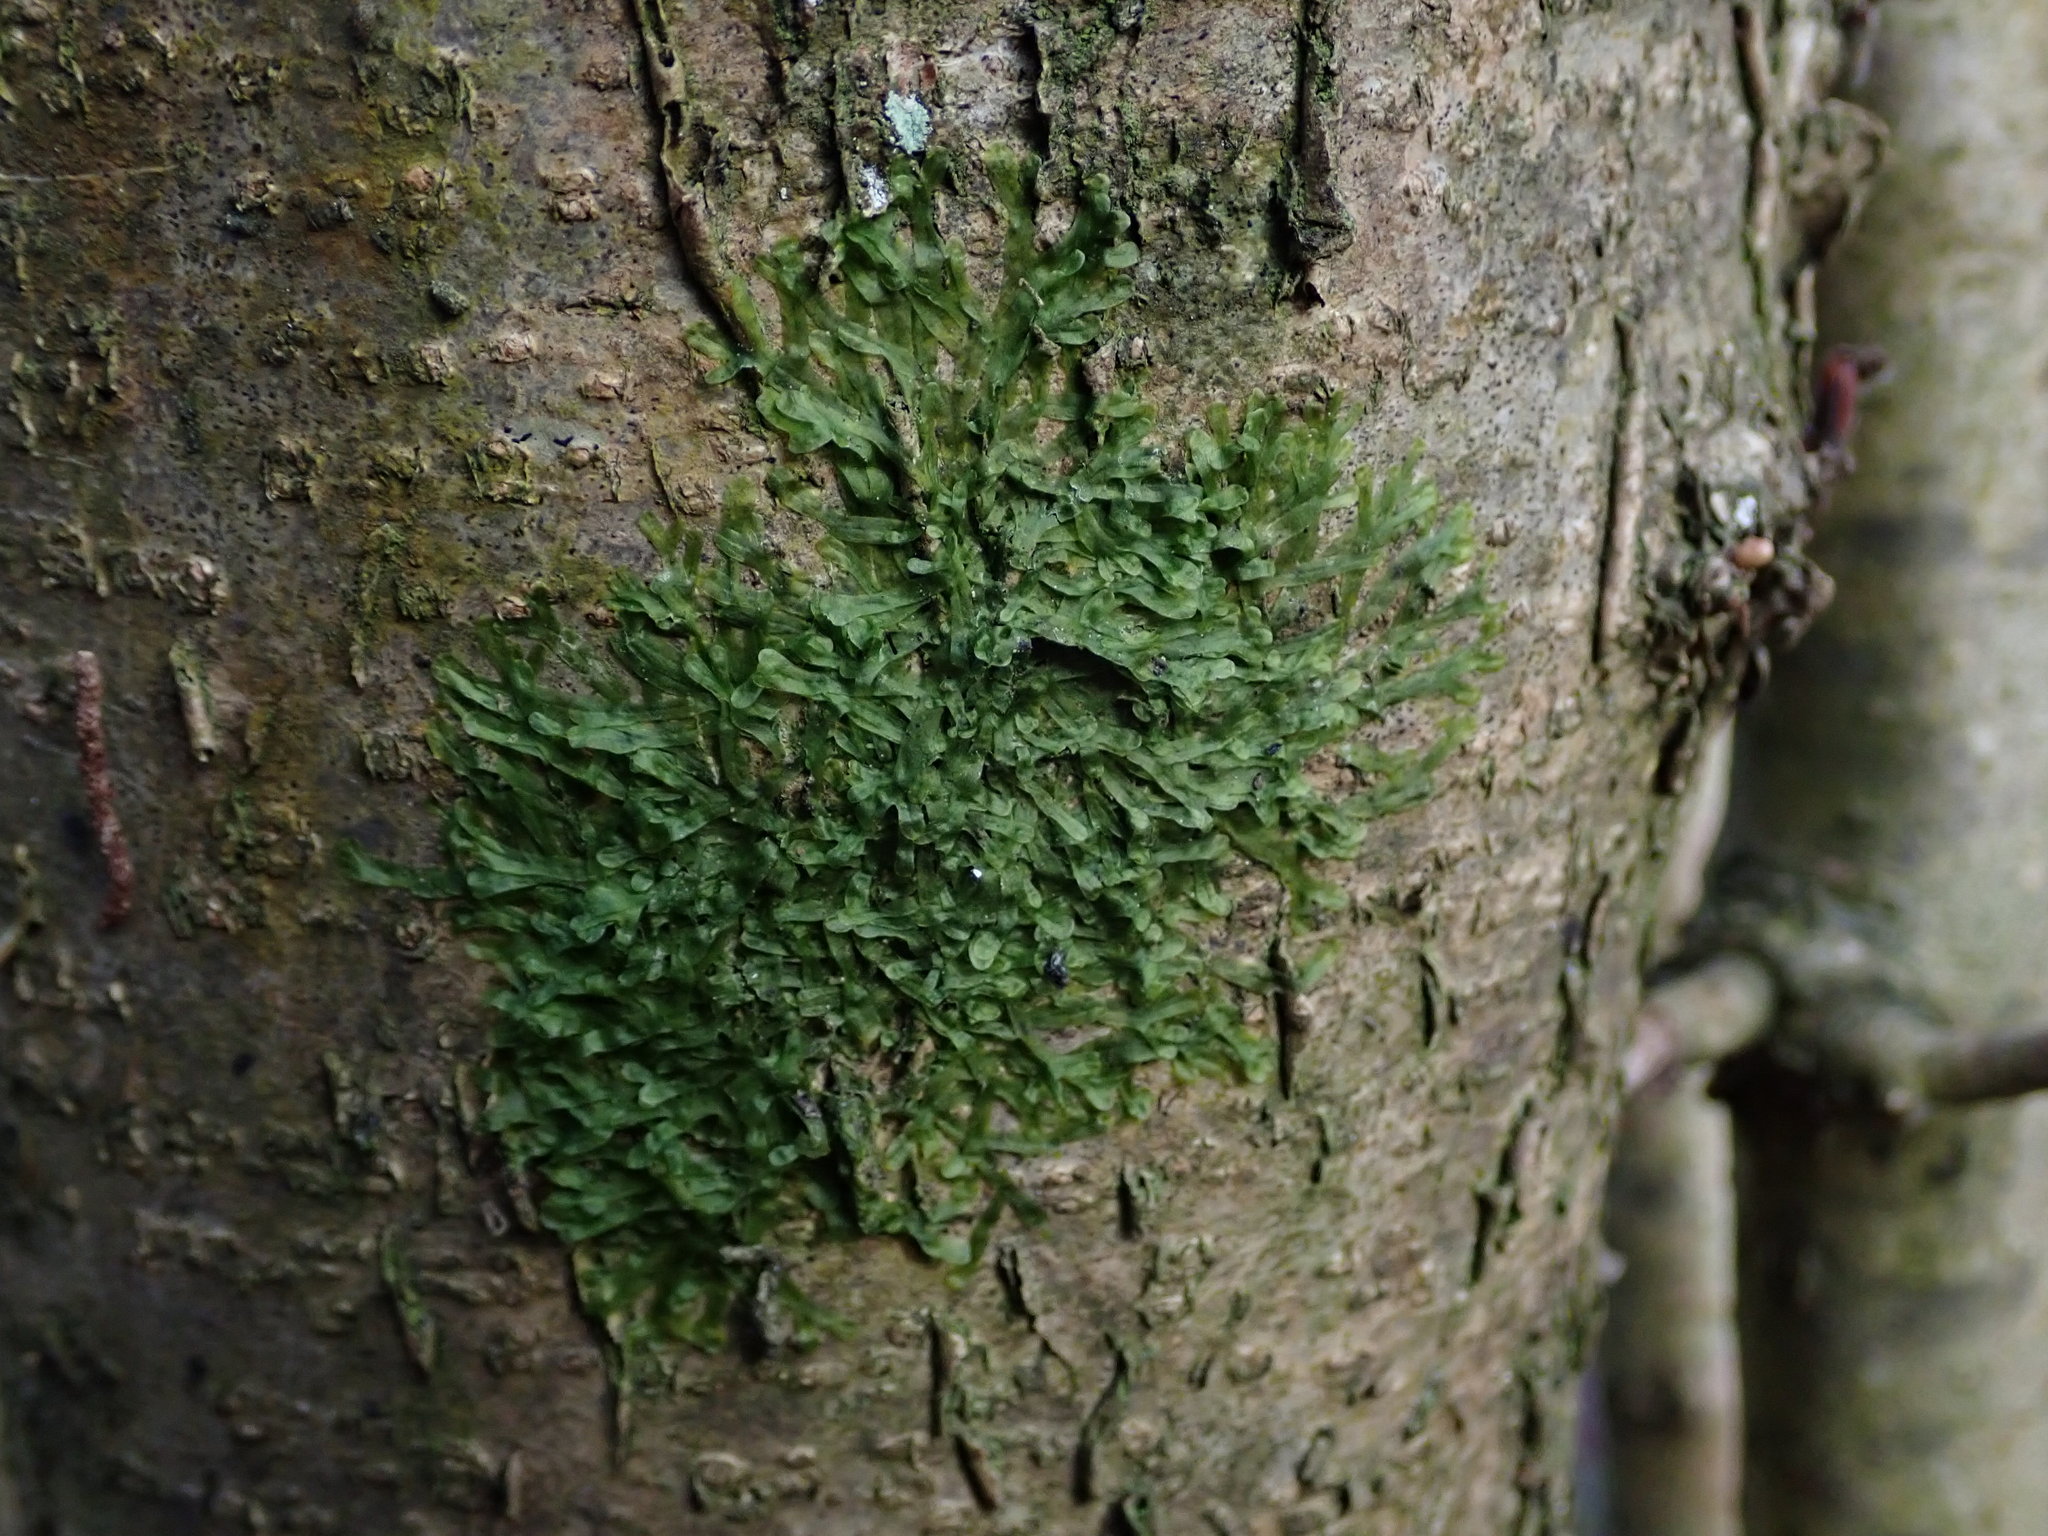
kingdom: Plantae
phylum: Marchantiophyta
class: Jungermanniopsida
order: Metzgeriales
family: Metzgeriaceae
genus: Metzgeria
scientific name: Metzgeria furcata
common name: Forked veilwort
